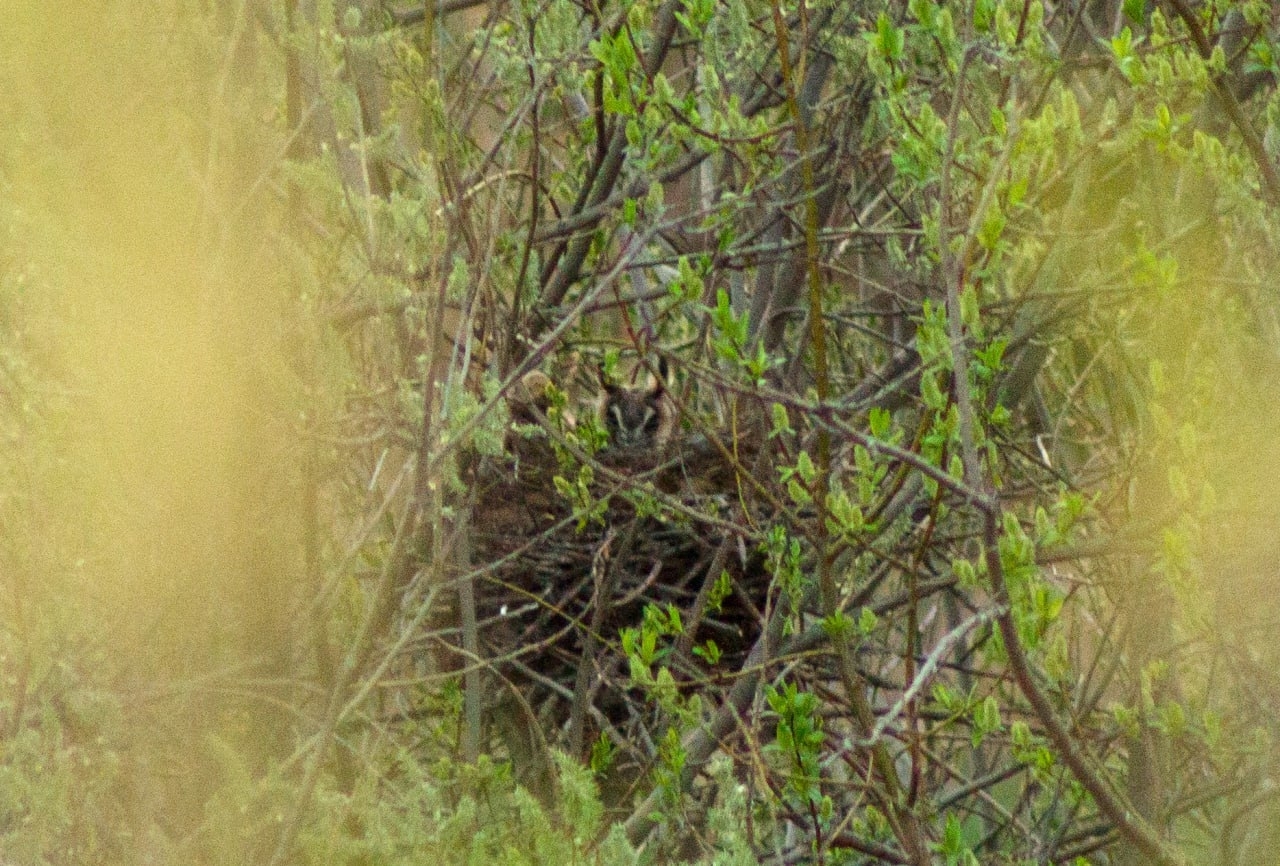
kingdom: Animalia
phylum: Chordata
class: Aves
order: Strigiformes
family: Strigidae
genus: Asio
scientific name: Asio otus
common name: Long-eared owl
